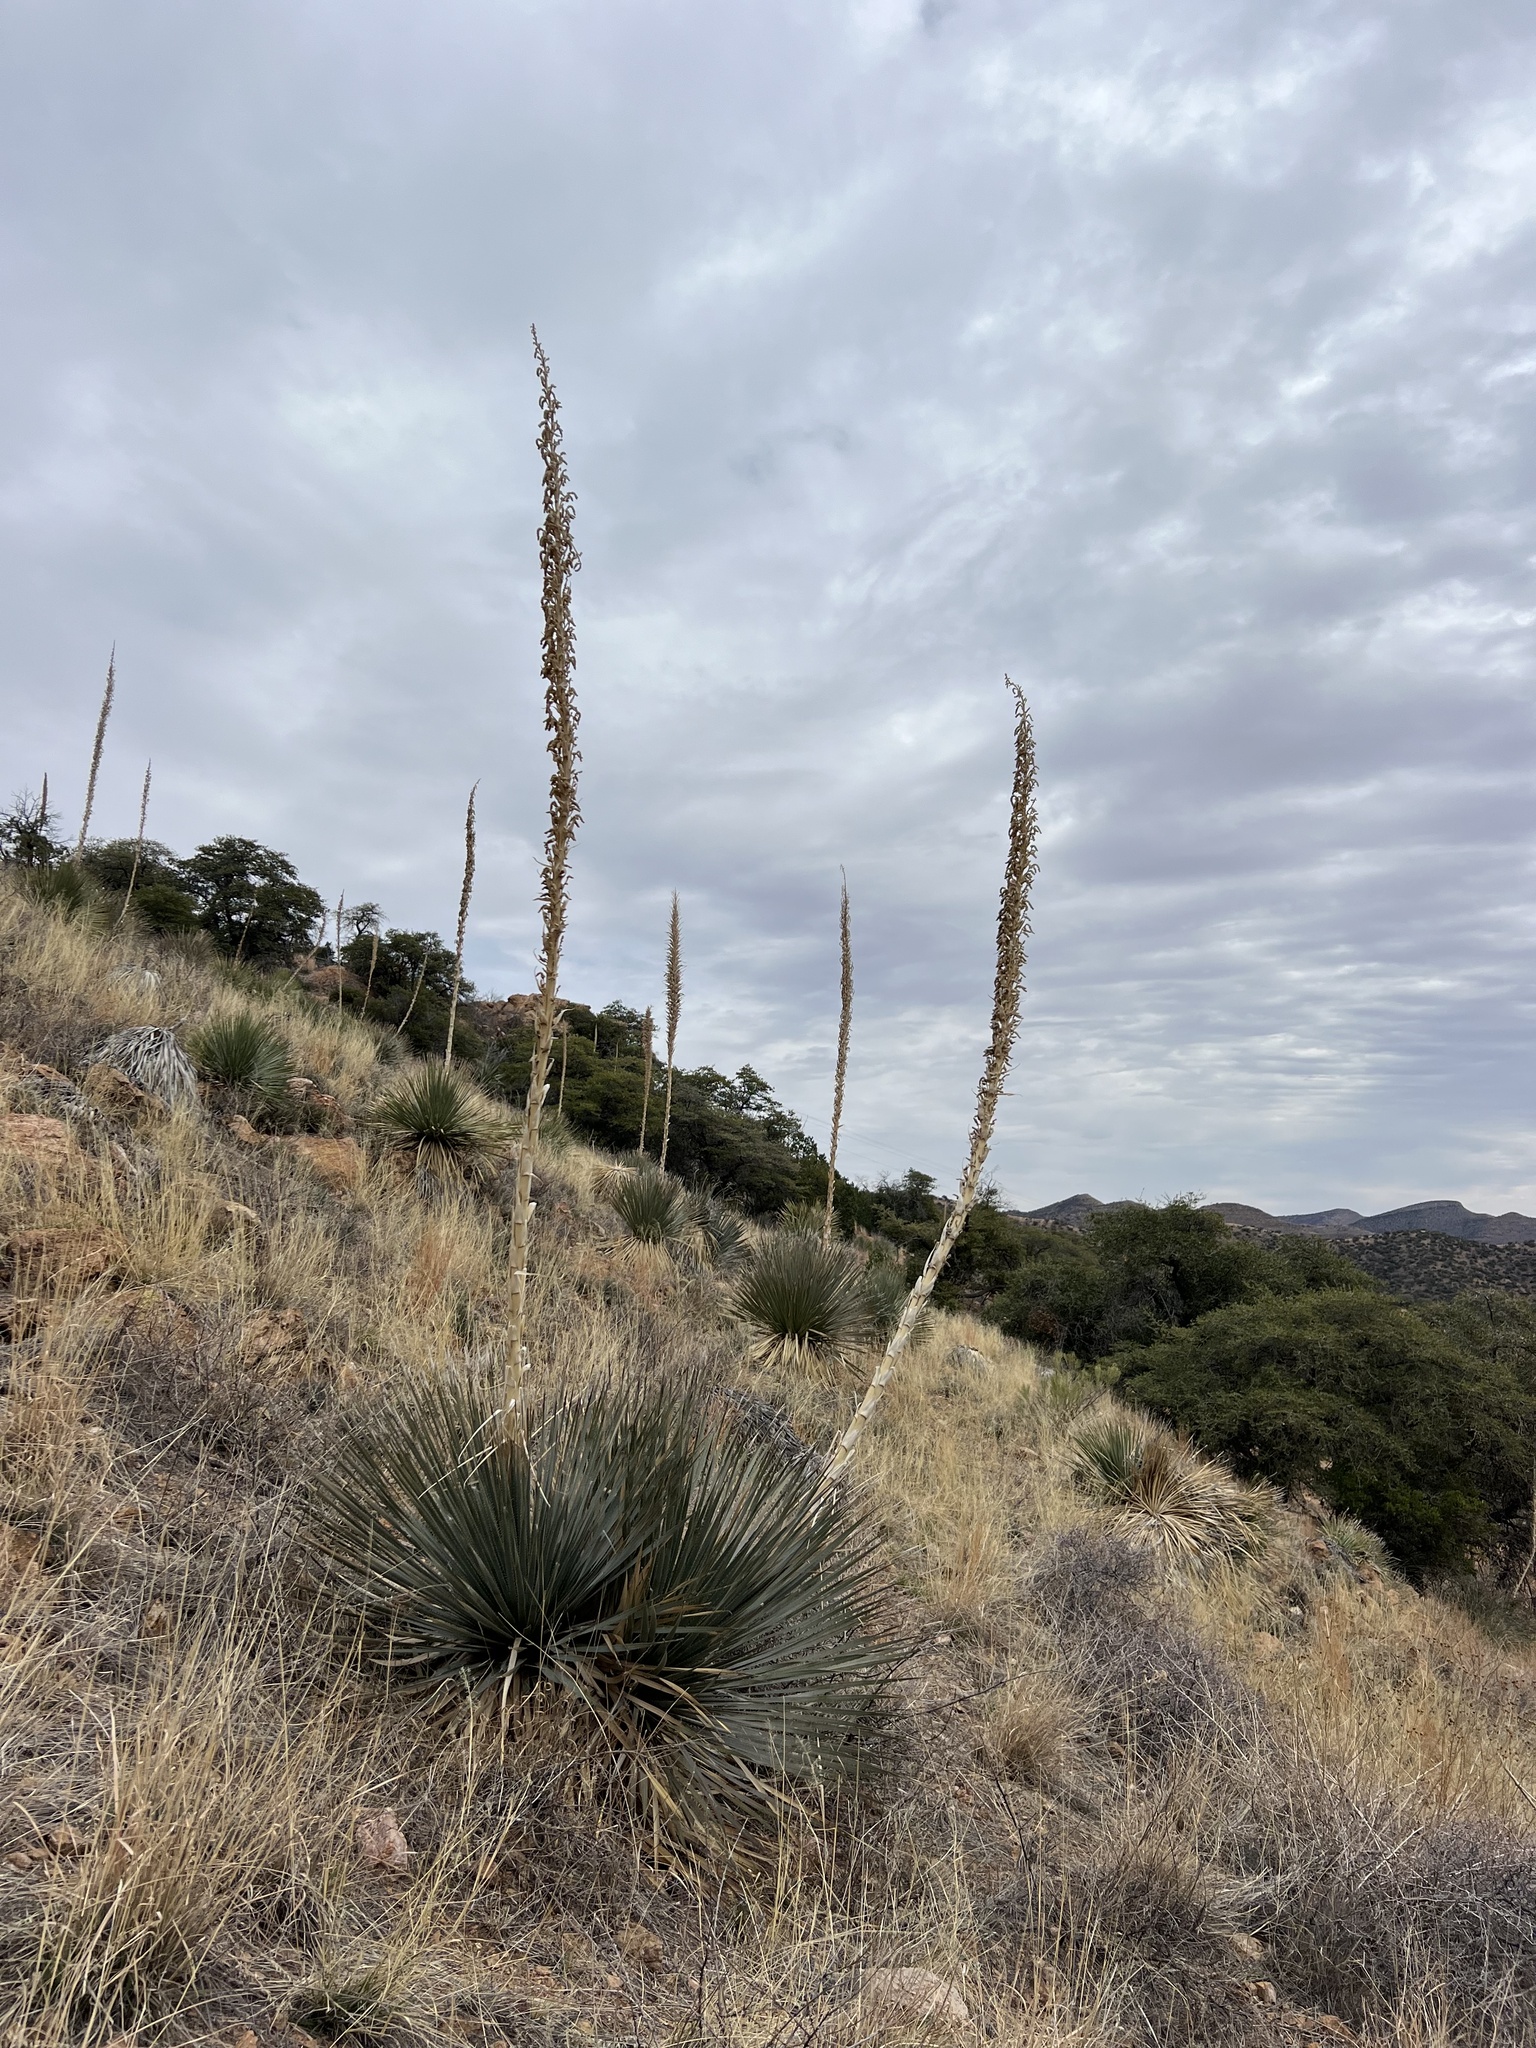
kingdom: Plantae
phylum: Tracheophyta
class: Liliopsida
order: Asparagales
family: Asparagaceae
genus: Dasylirion
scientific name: Dasylirion wheeleri
